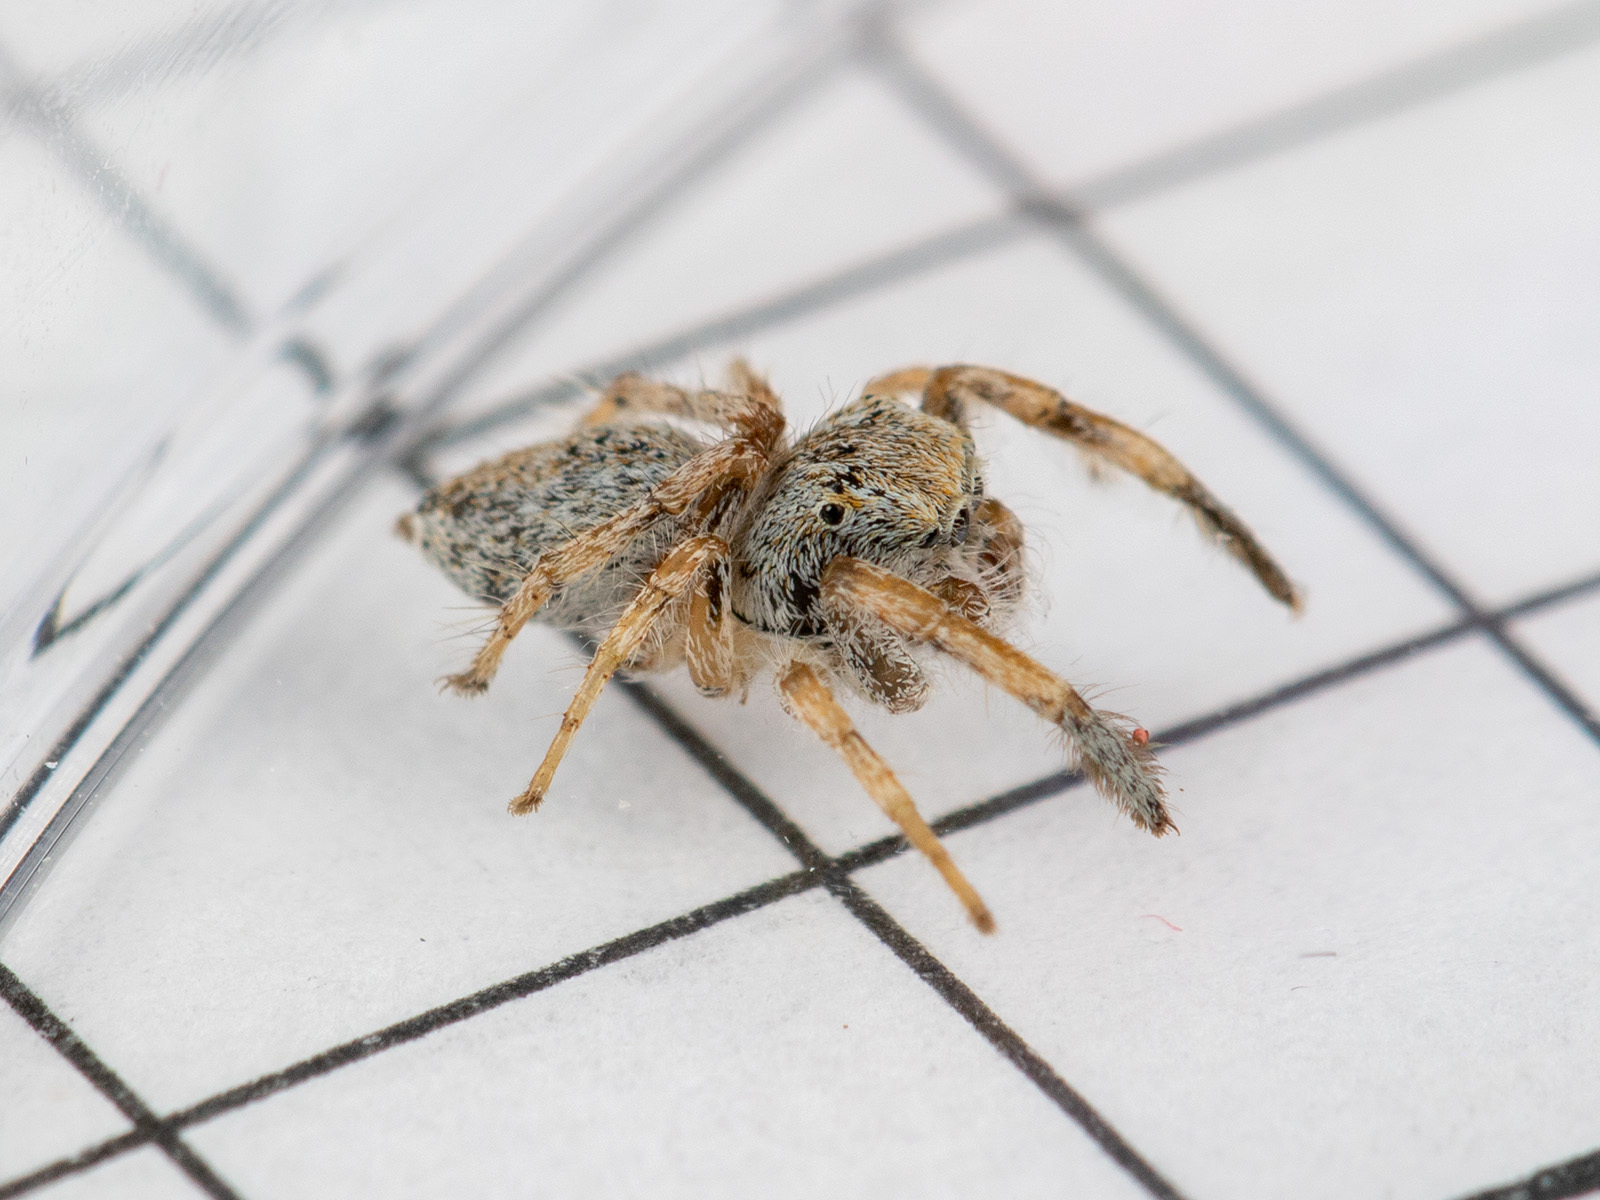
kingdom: Animalia
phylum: Arthropoda
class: Arachnida
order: Araneae
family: Salticidae
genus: Marusyllus
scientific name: Marusyllus uzbekistanicus
